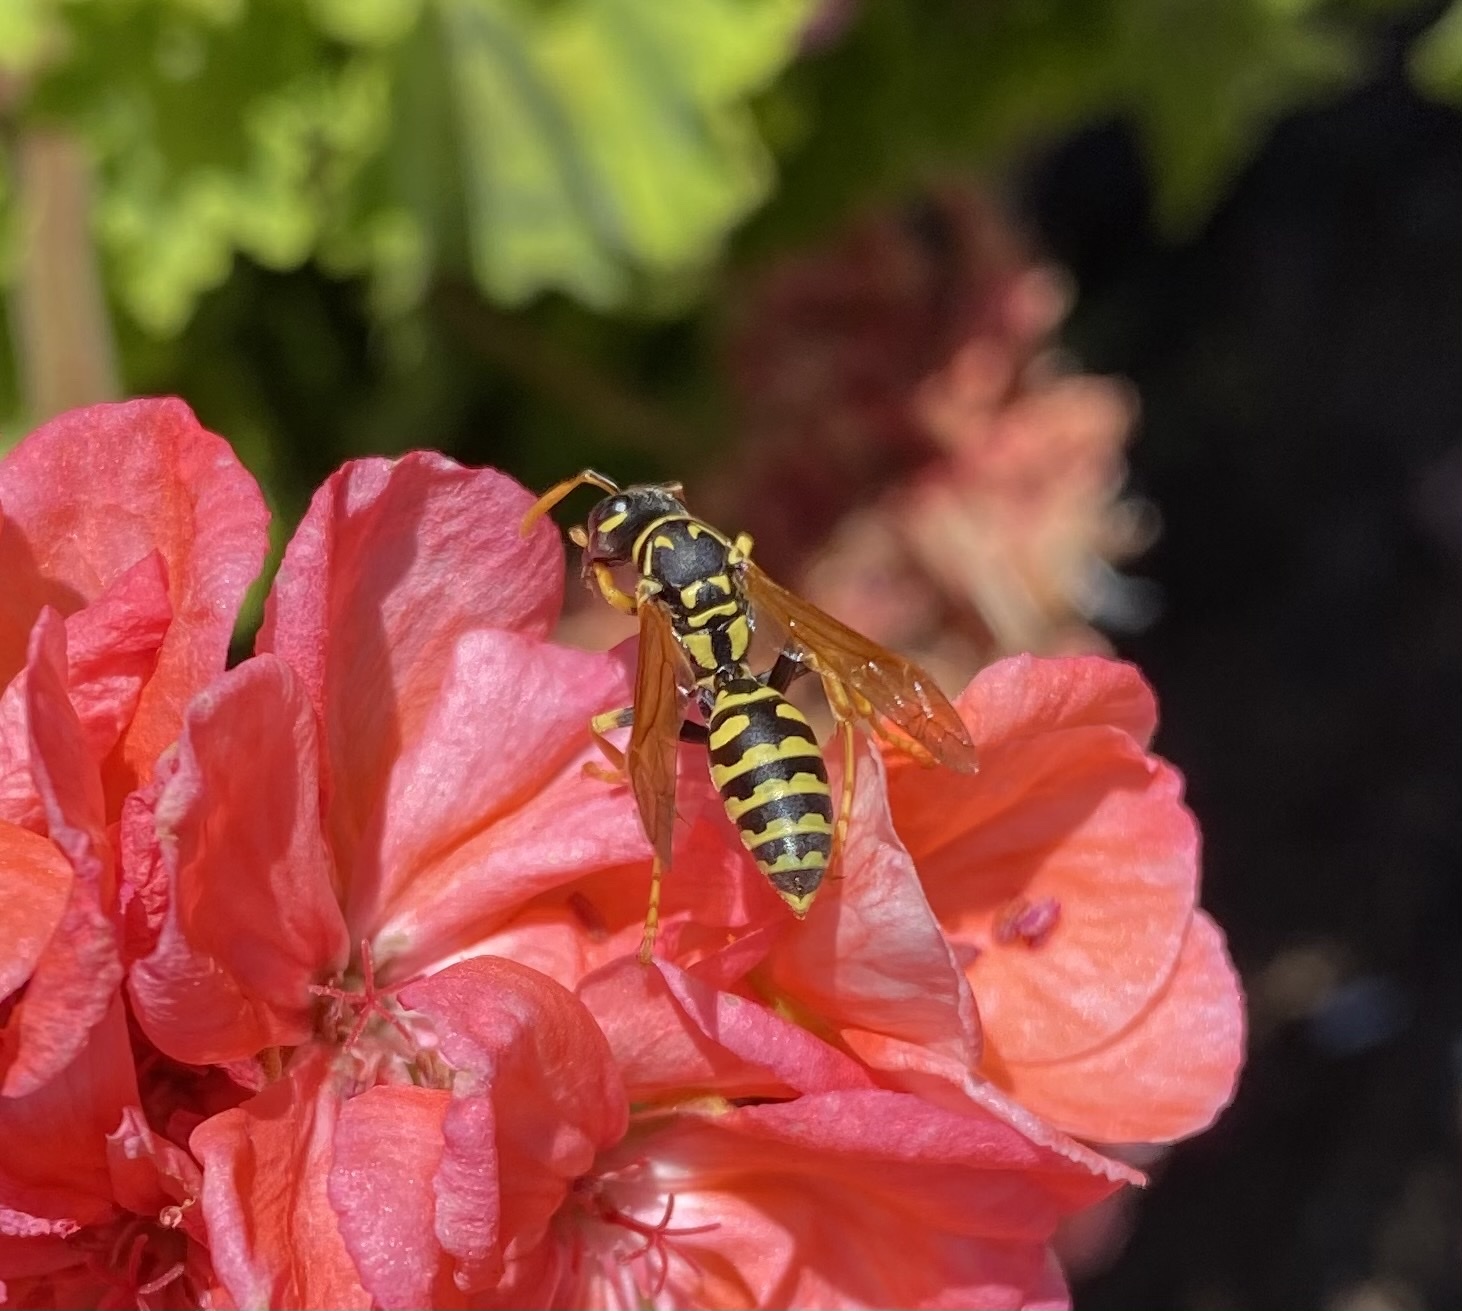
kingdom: Animalia
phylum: Arthropoda
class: Insecta
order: Hymenoptera
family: Eumenidae
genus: Polistes
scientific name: Polistes dominula
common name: Paper wasp
